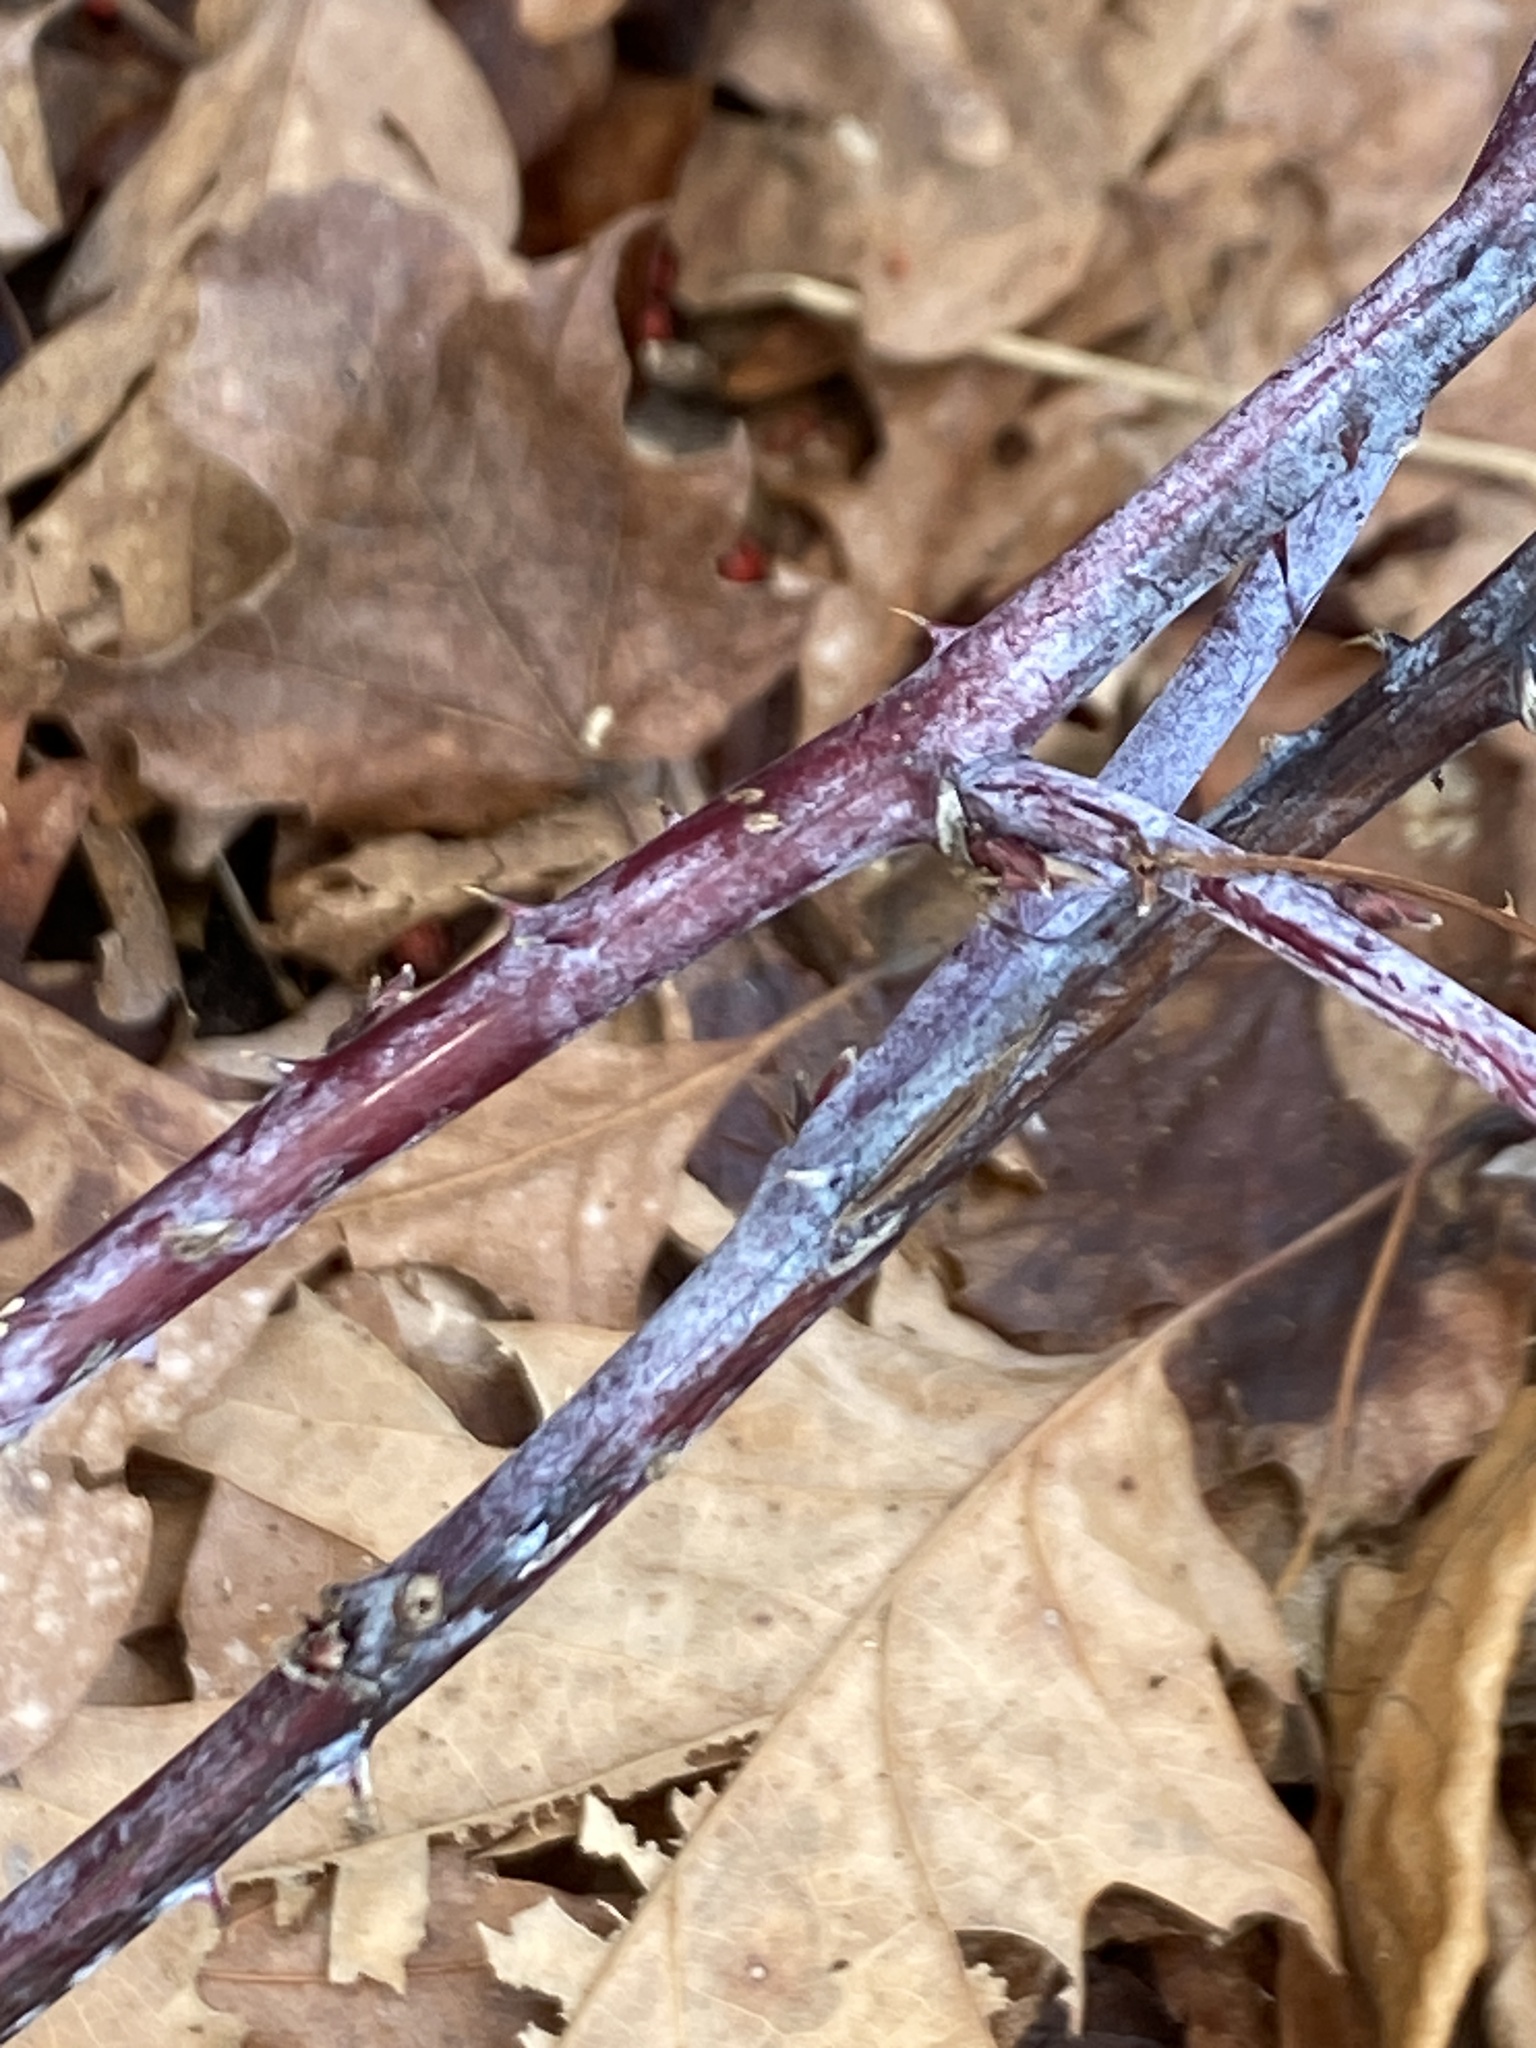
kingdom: Plantae
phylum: Tracheophyta
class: Magnoliopsida
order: Rosales
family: Rosaceae
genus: Rubus
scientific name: Rubus occidentalis
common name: Black raspberry
